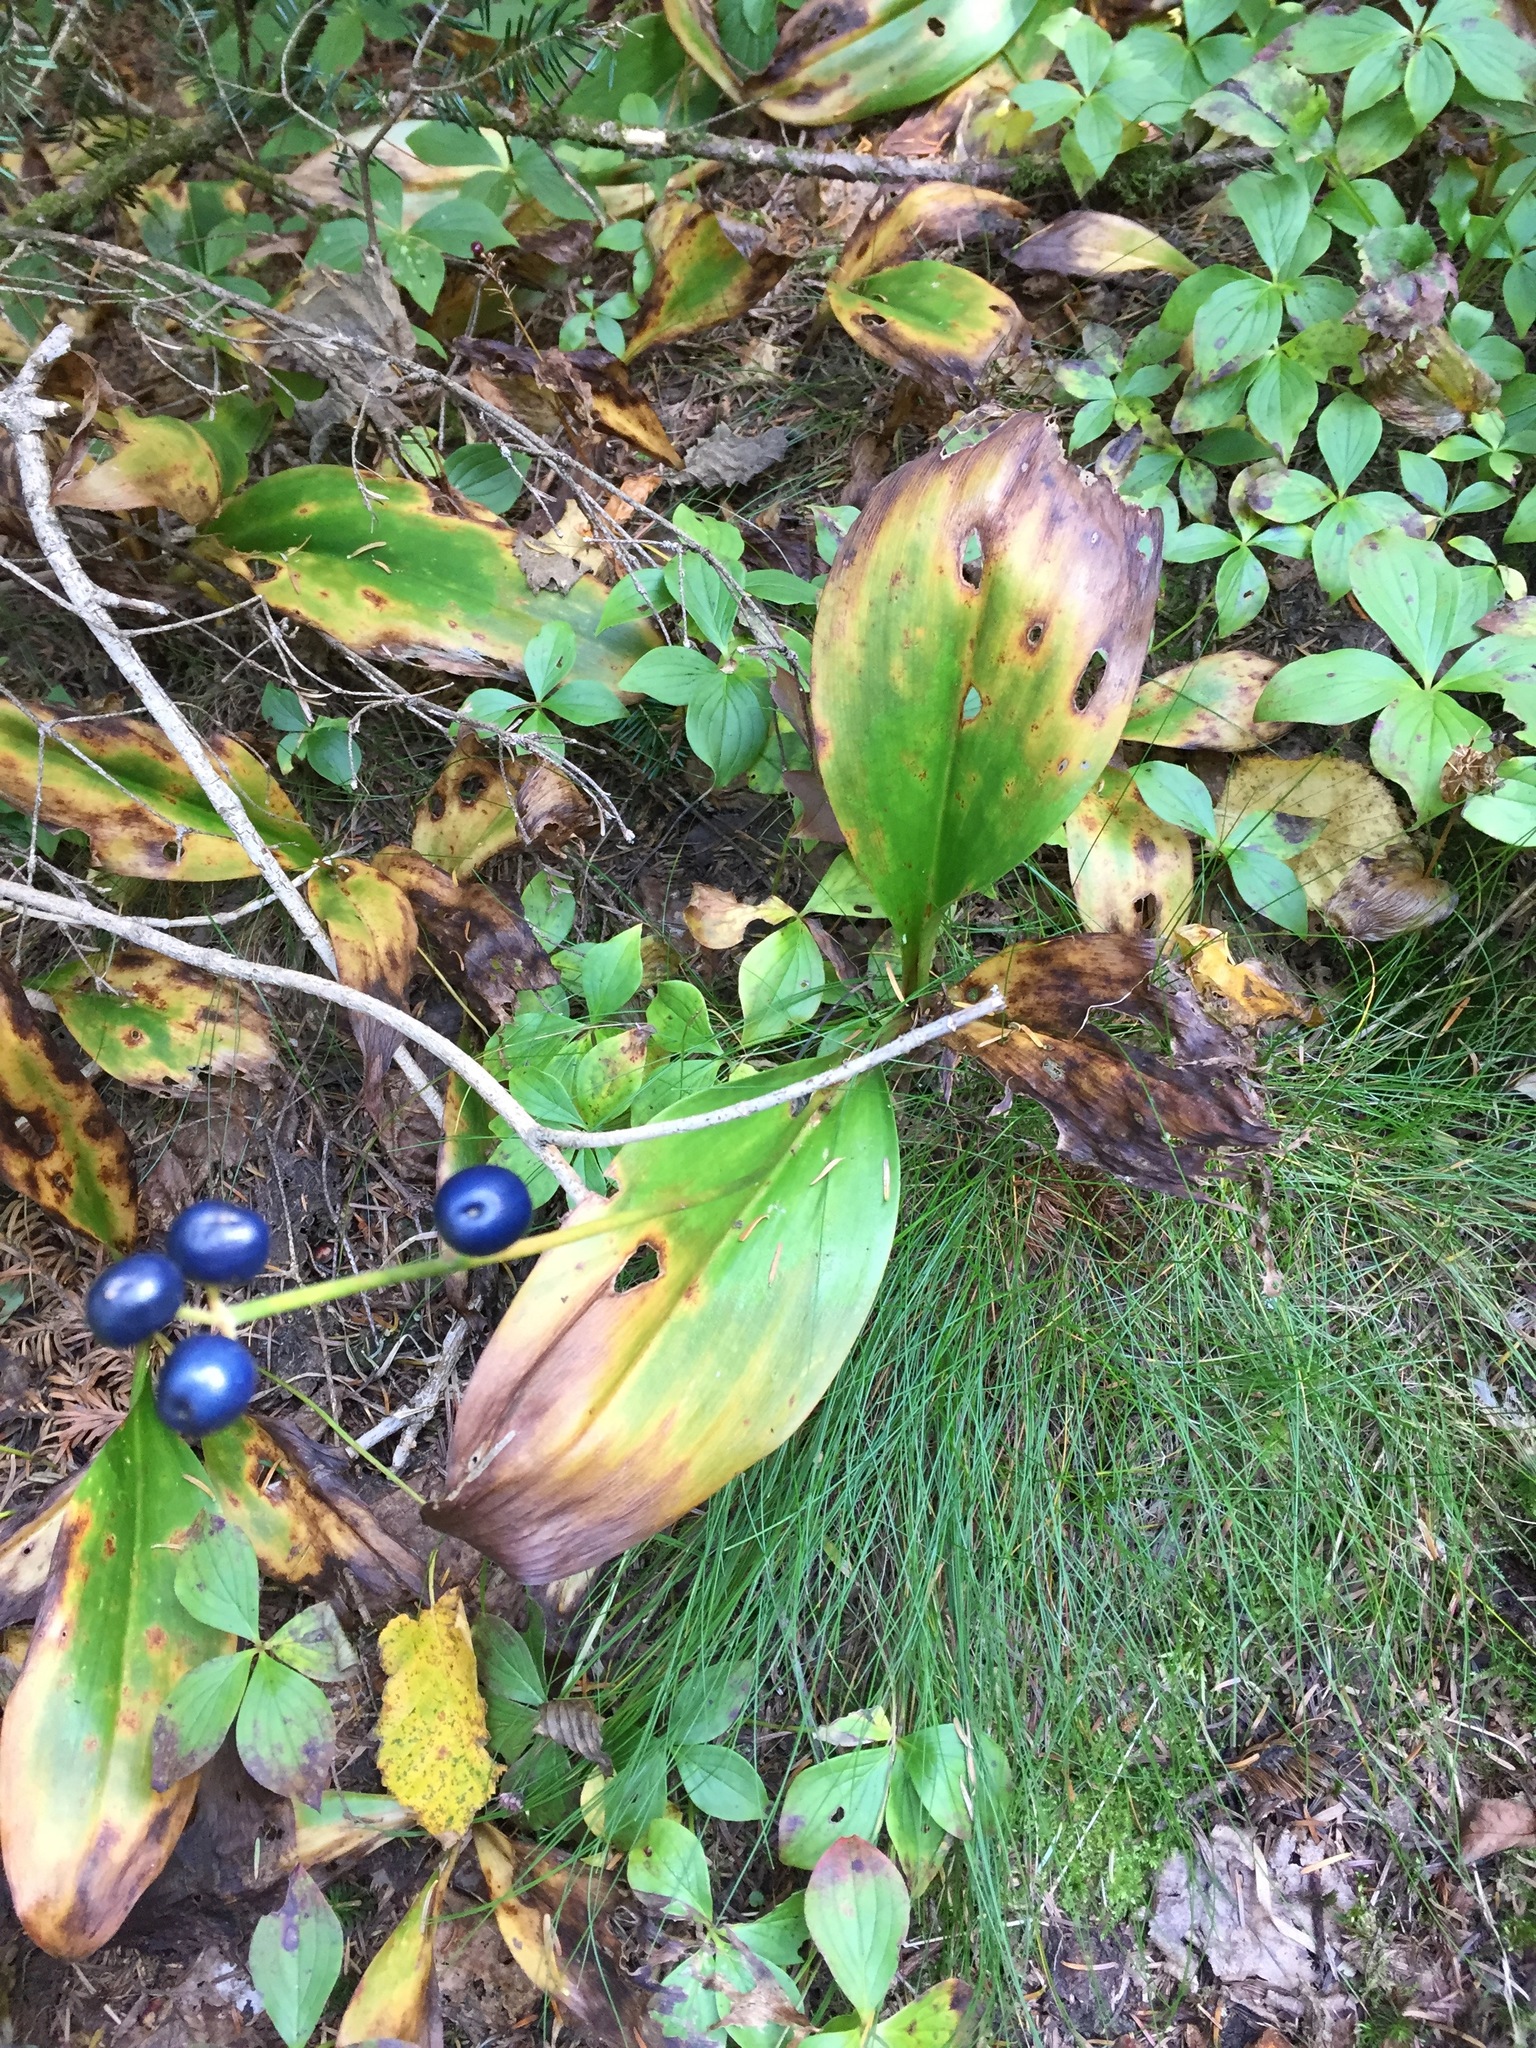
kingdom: Plantae
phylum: Tracheophyta
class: Liliopsida
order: Liliales
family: Liliaceae
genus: Clintonia
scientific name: Clintonia borealis
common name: Yellow clintonia
